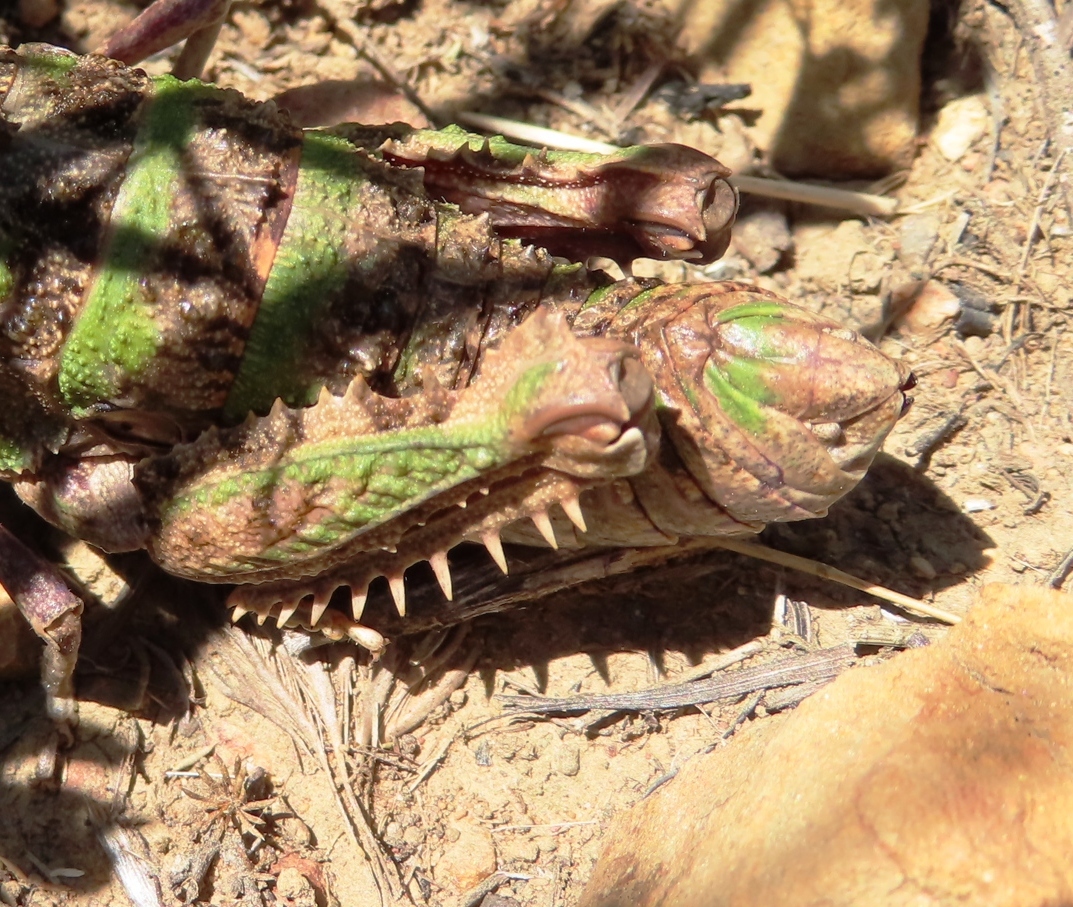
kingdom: Animalia
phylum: Arthropoda
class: Insecta
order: Orthoptera
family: Pamphagidae
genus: Porthetis
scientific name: Porthetis carinata
